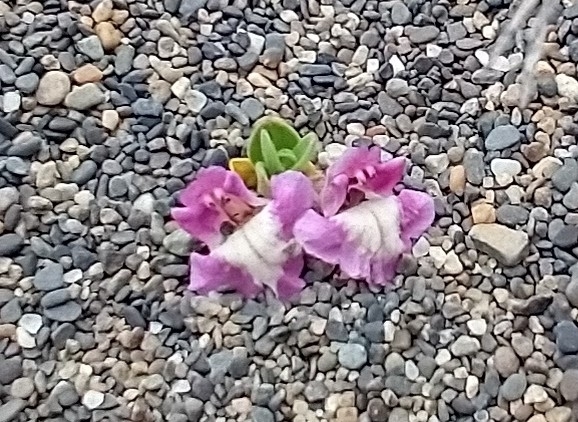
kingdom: Plantae
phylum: Tracheophyta
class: Magnoliopsida
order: Lamiales
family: Lamiaceae
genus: Scutellaria
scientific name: Scutellaria nummulariifolia
